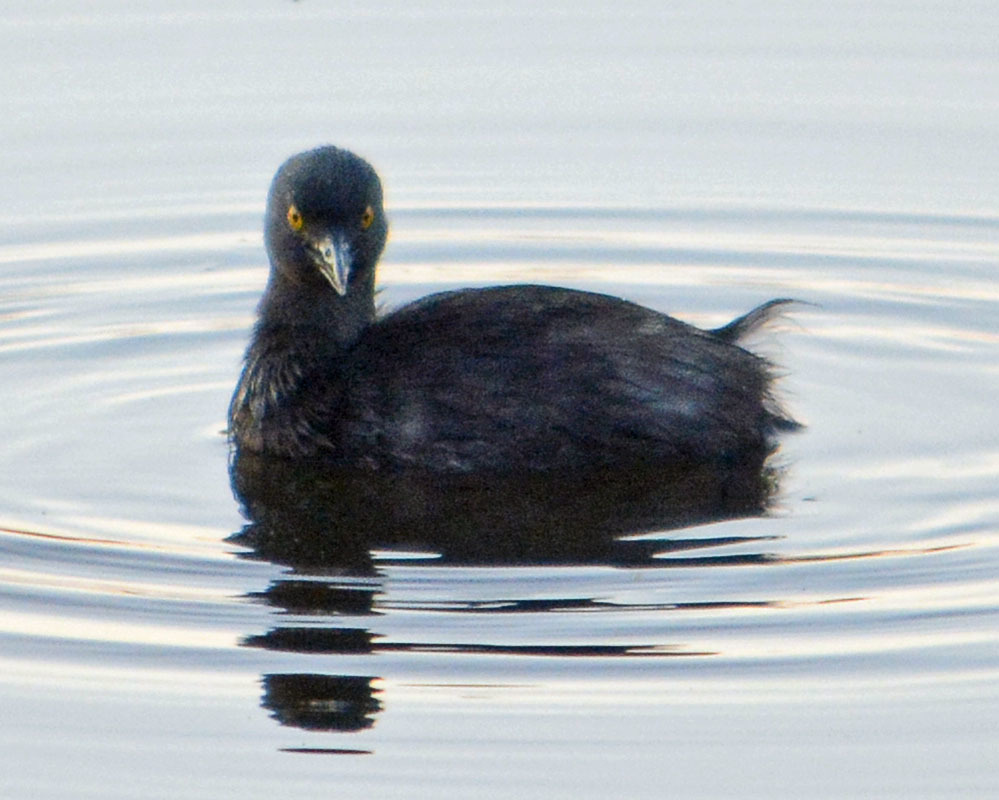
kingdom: Animalia
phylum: Chordata
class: Aves
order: Podicipediformes
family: Podicipedidae
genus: Tachybaptus
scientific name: Tachybaptus dominicus
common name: Least grebe
